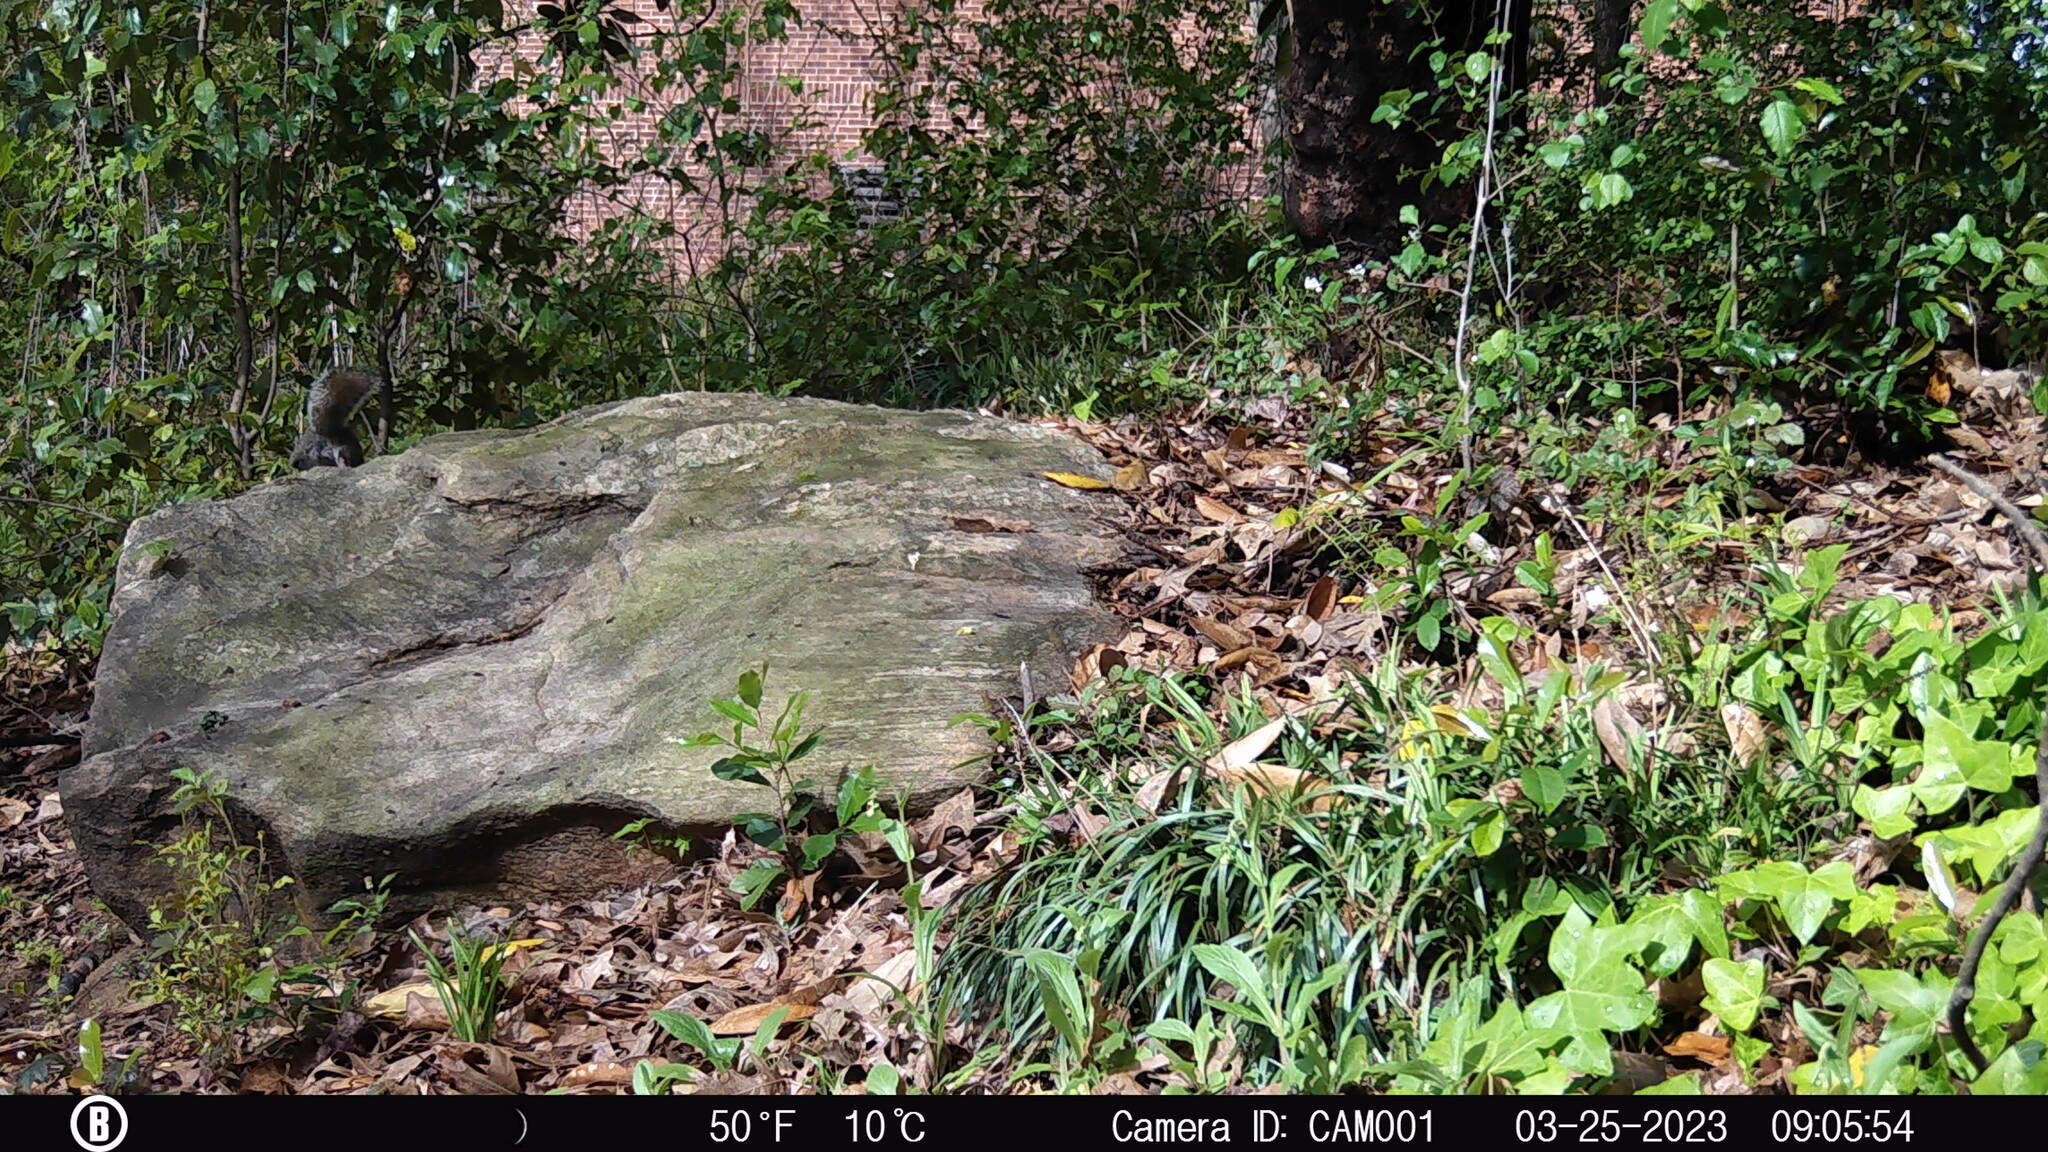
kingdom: Animalia
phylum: Chordata
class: Mammalia
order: Rodentia
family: Sciuridae
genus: Sciurus
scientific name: Sciurus carolinensis
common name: Eastern gray squirrel
